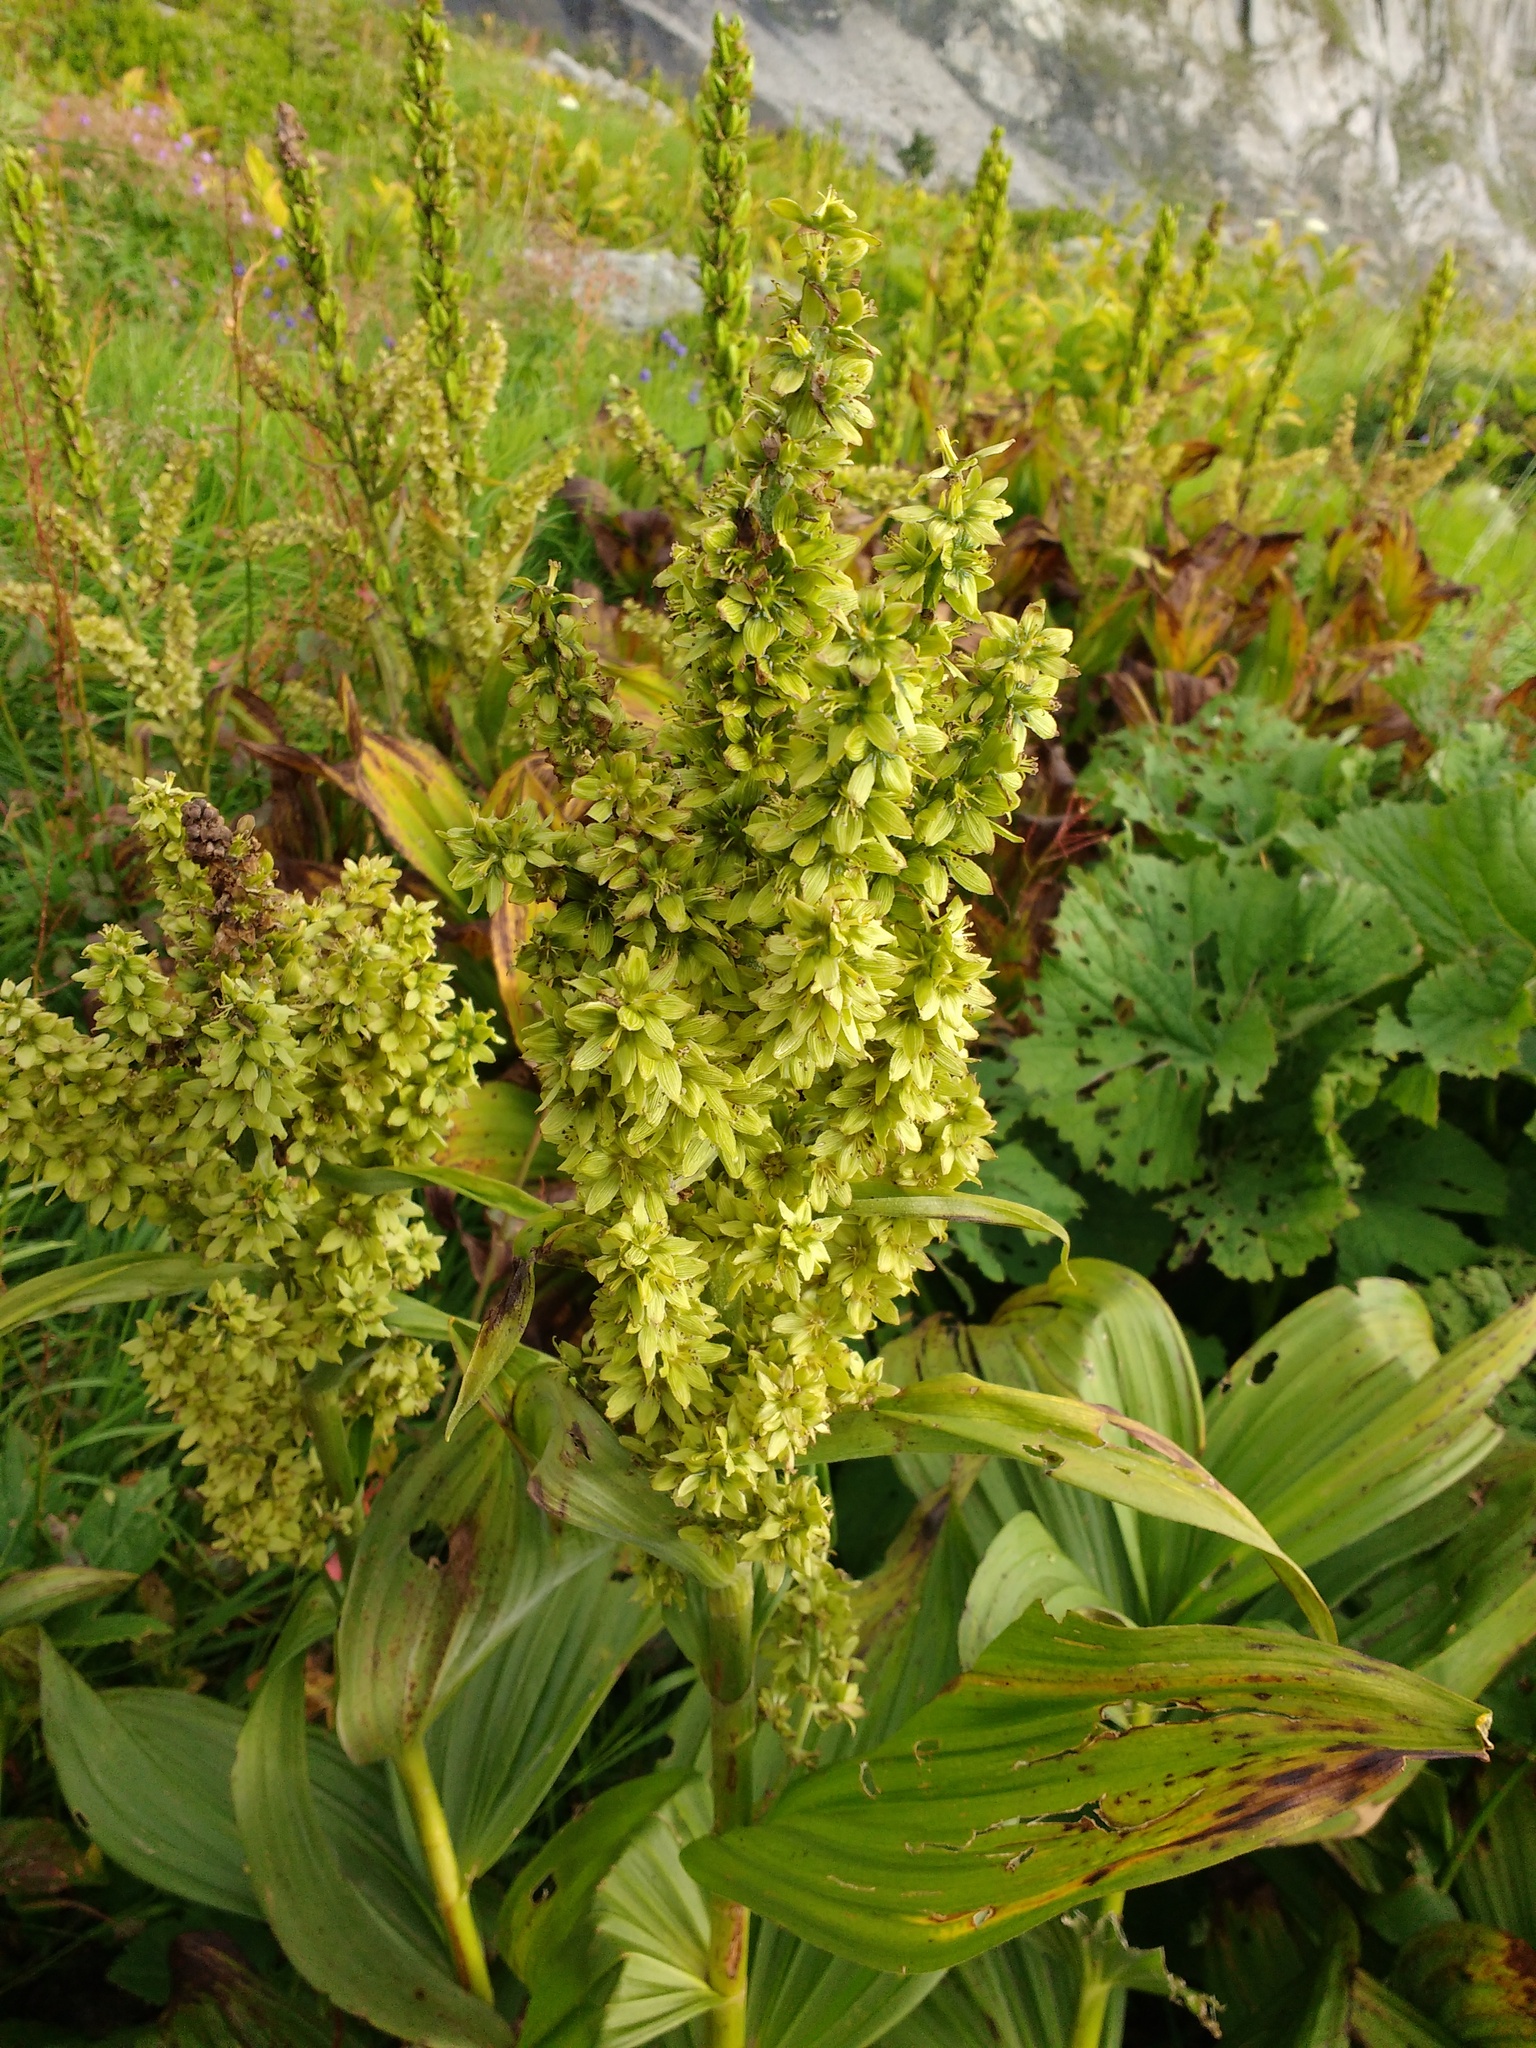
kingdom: Plantae
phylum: Tracheophyta
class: Liliopsida
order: Liliales
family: Melanthiaceae
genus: Veratrum
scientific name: Veratrum lobelianum
